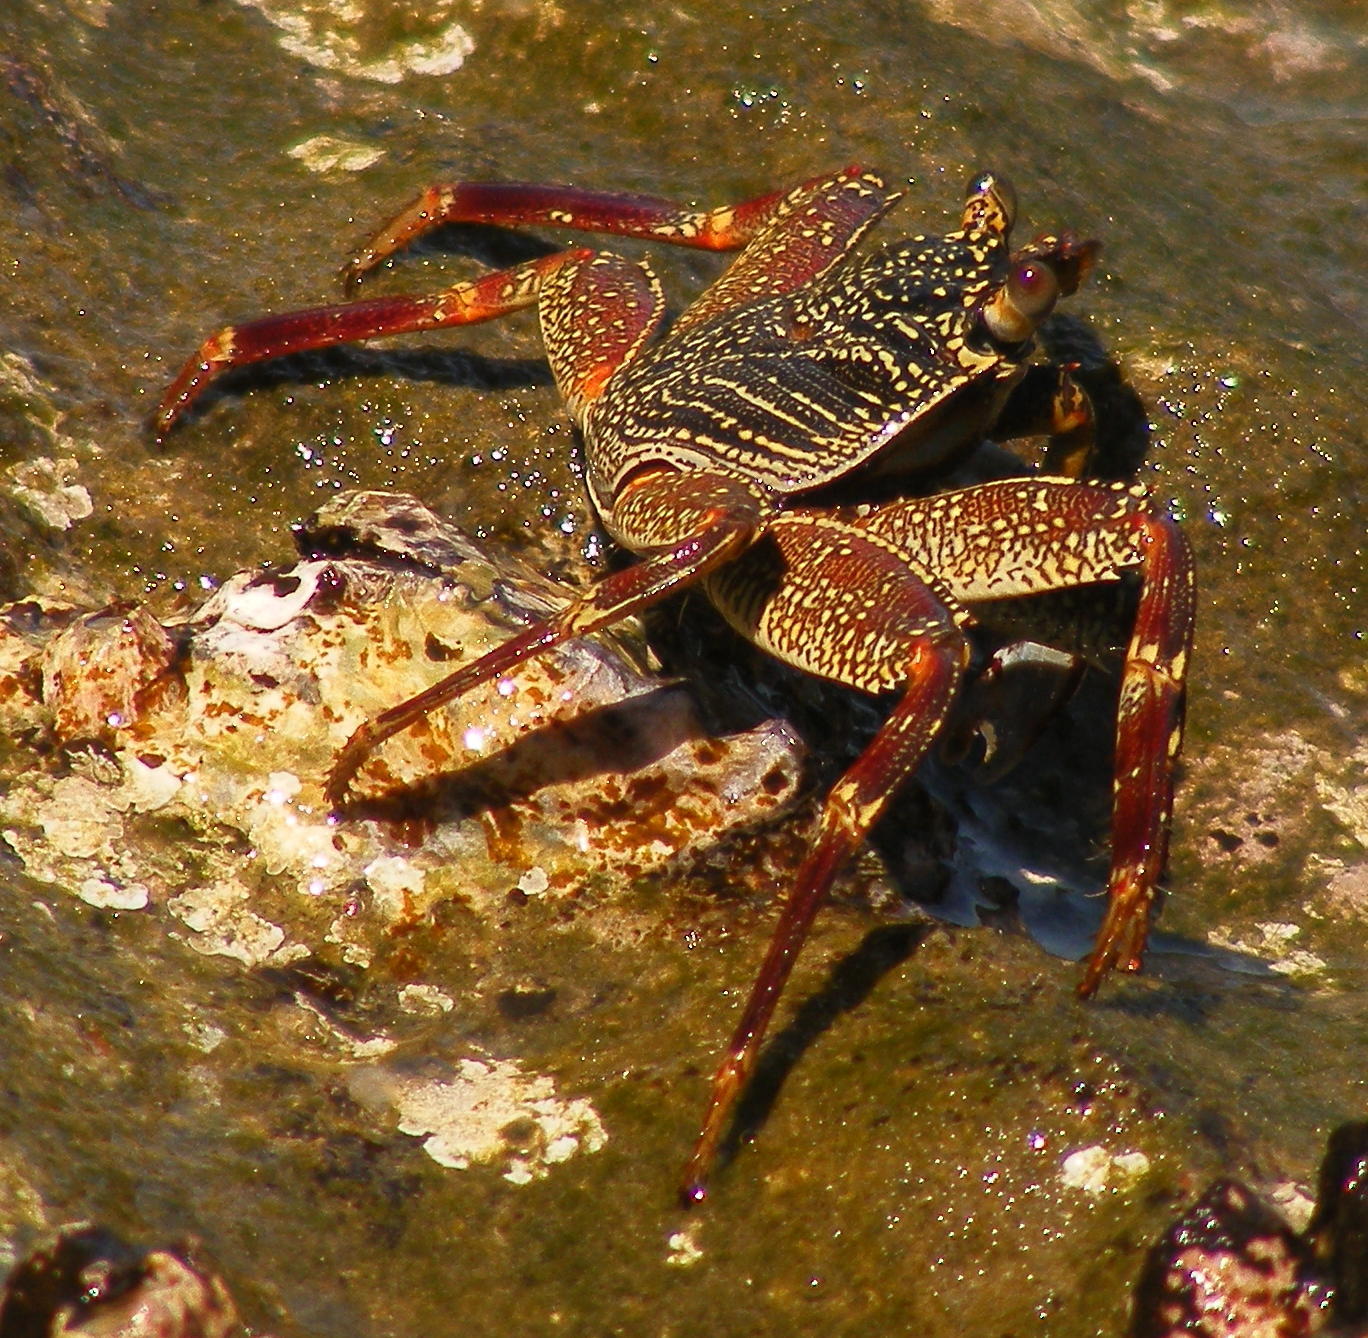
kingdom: Animalia
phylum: Arthropoda
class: Malacostraca
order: Decapoda
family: Grapsidae
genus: Grapsus
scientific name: Grapsus tenuicrustatus
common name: Natal lightfoot crab
